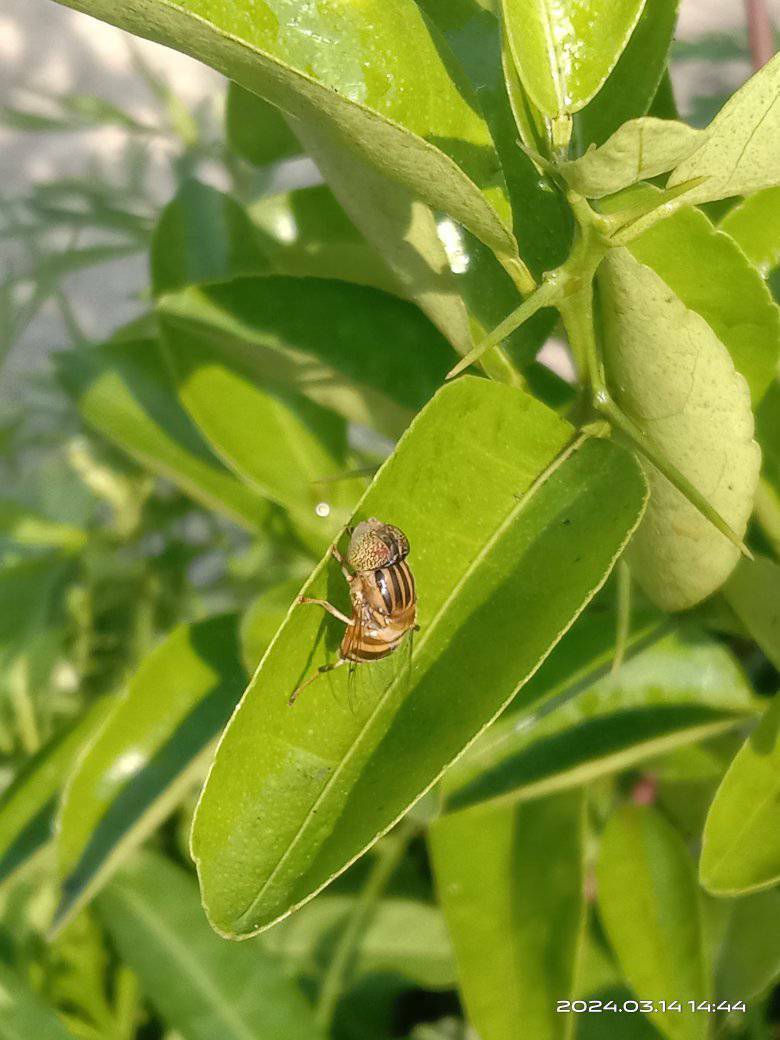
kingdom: Animalia
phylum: Arthropoda
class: Insecta
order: Diptera
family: Syrphidae
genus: Eristalinus
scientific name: Eristalinus arvorum
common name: Syrphid fly
